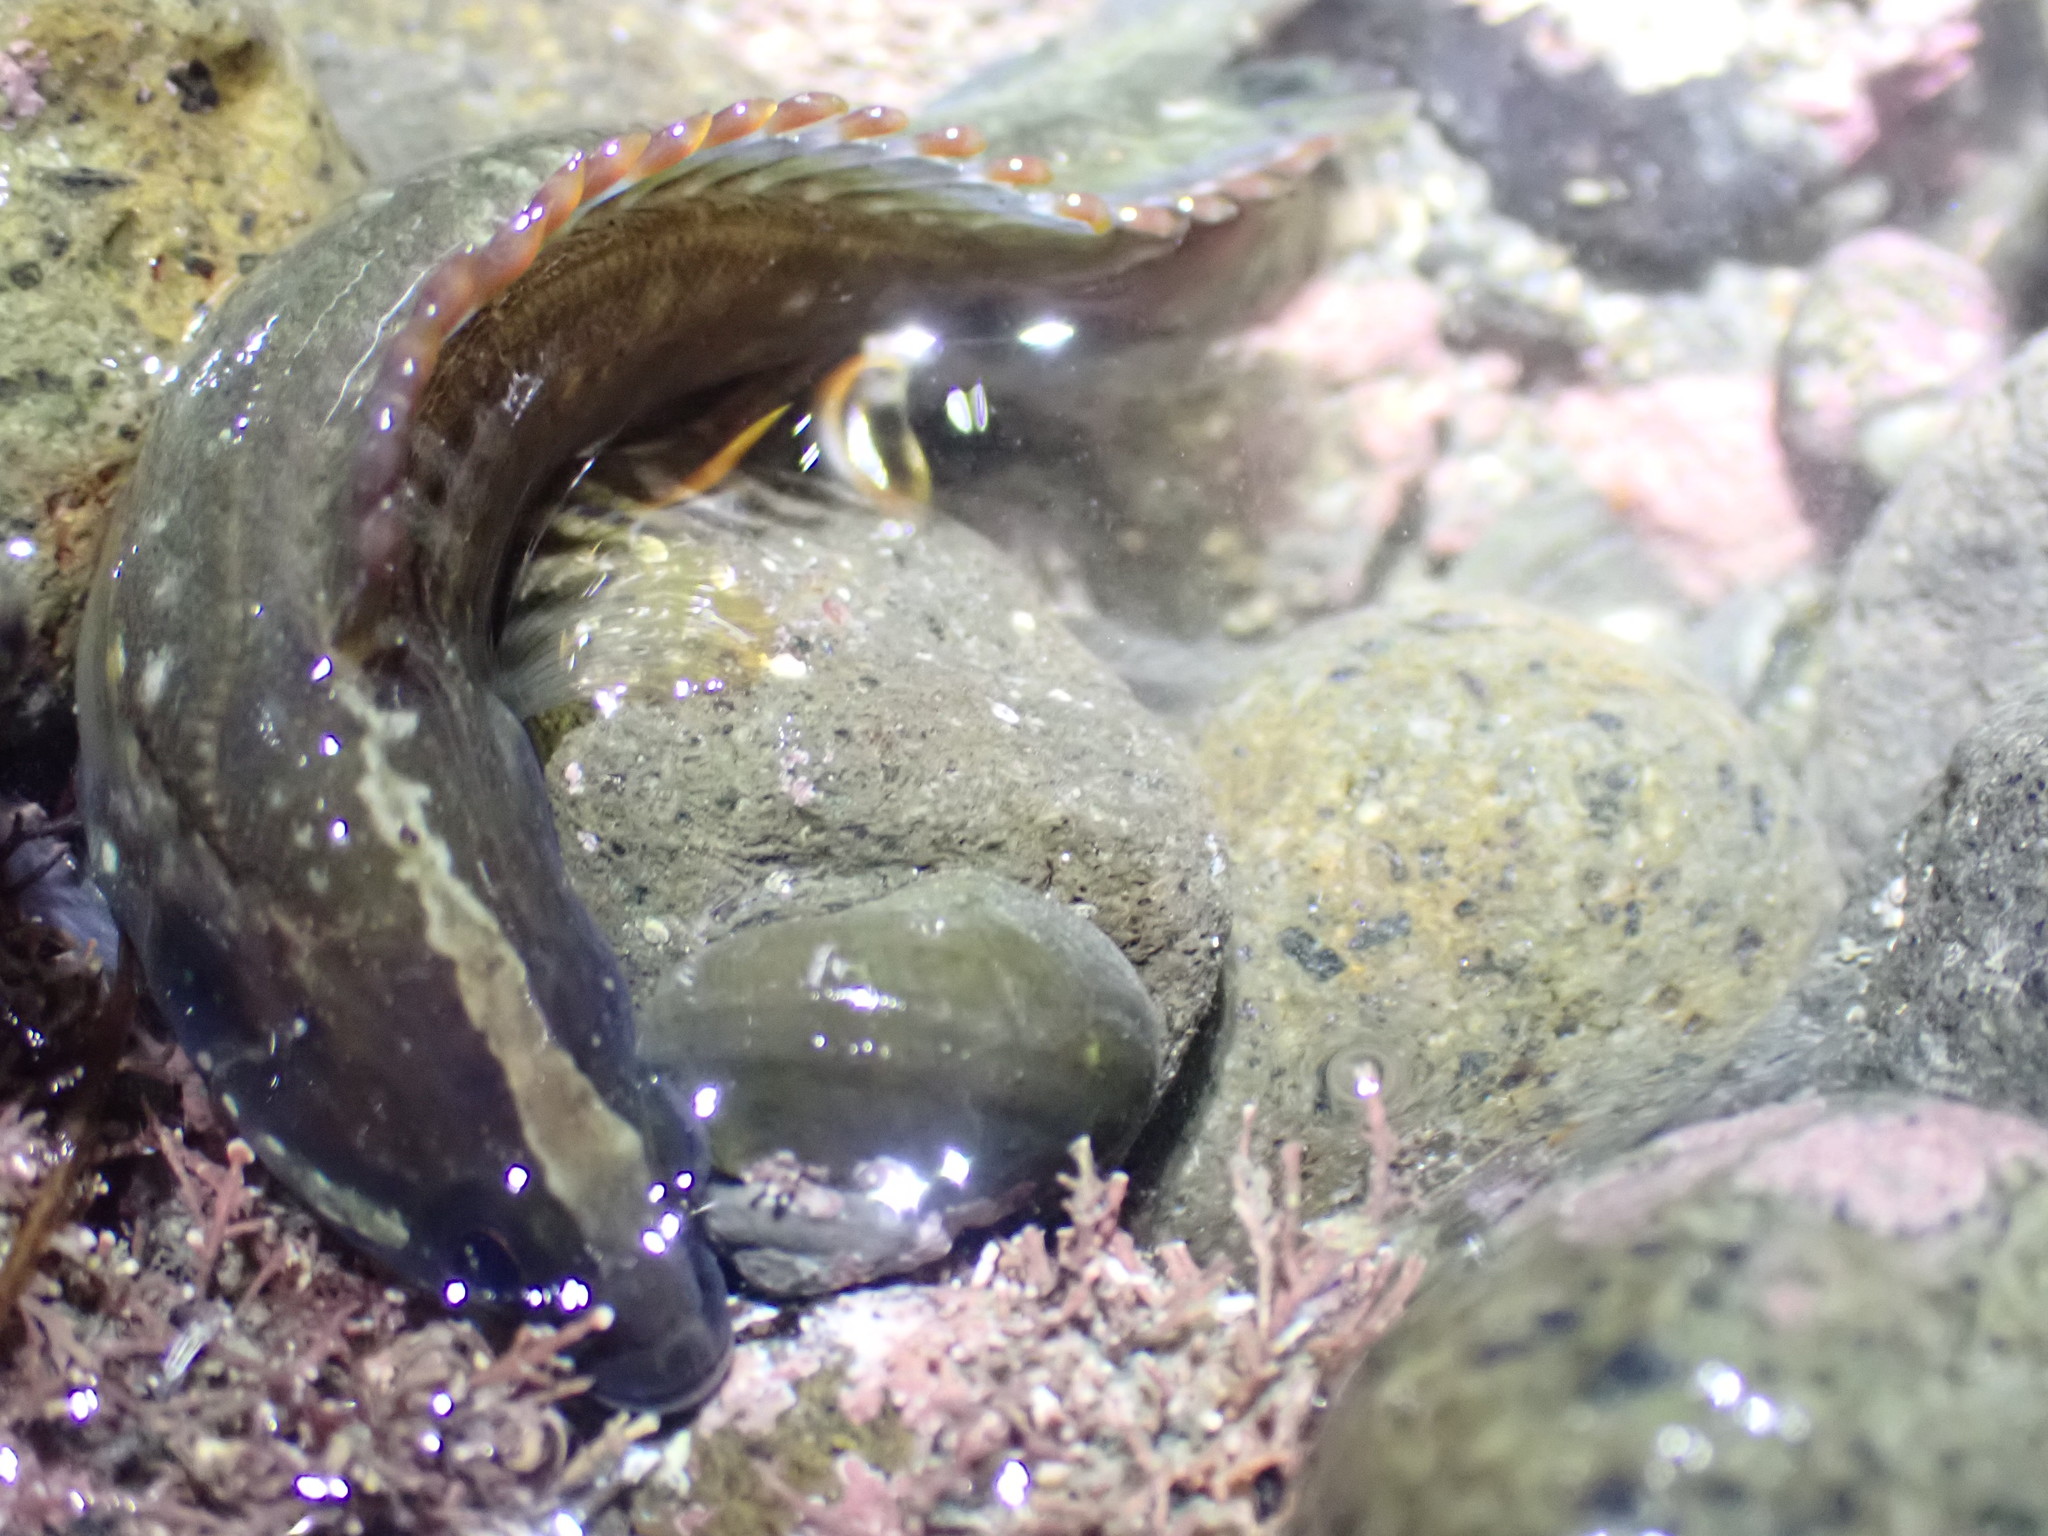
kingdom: Animalia
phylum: Chordata
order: Perciformes
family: Plesiopidae
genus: Acanthoclinus
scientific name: Acanthoclinus fuscus
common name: Olive rockfish
